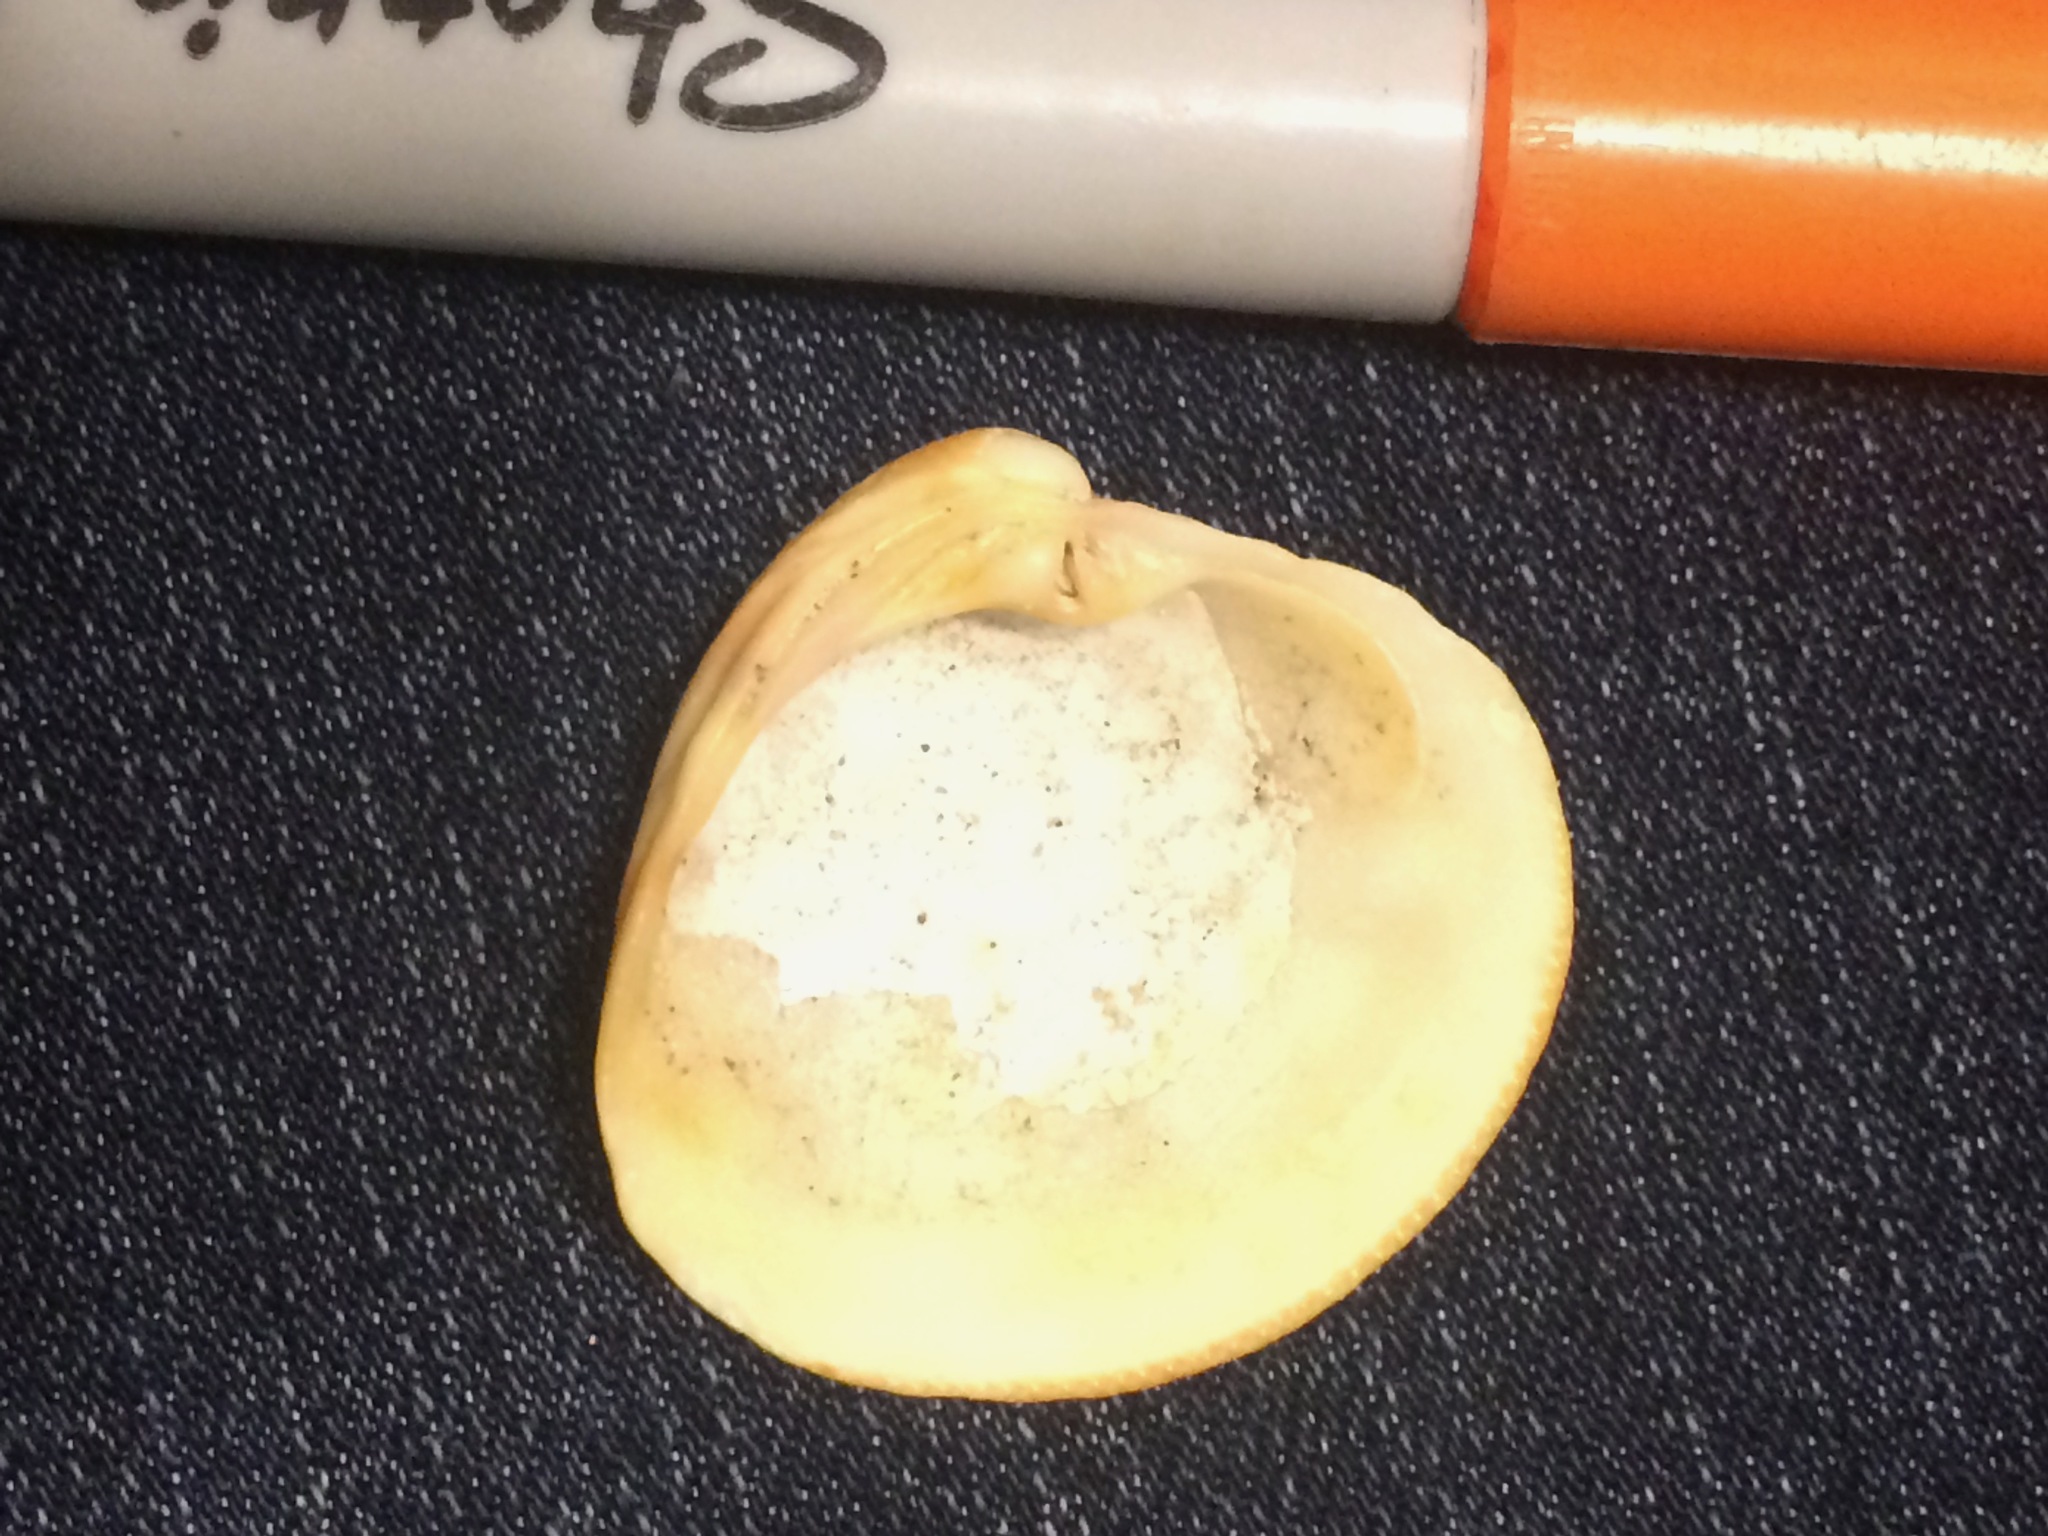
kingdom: Animalia
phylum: Mollusca
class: Bivalvia
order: Venerida
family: Veneridae
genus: Chionopsis
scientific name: Chionopsis intapurpurea
